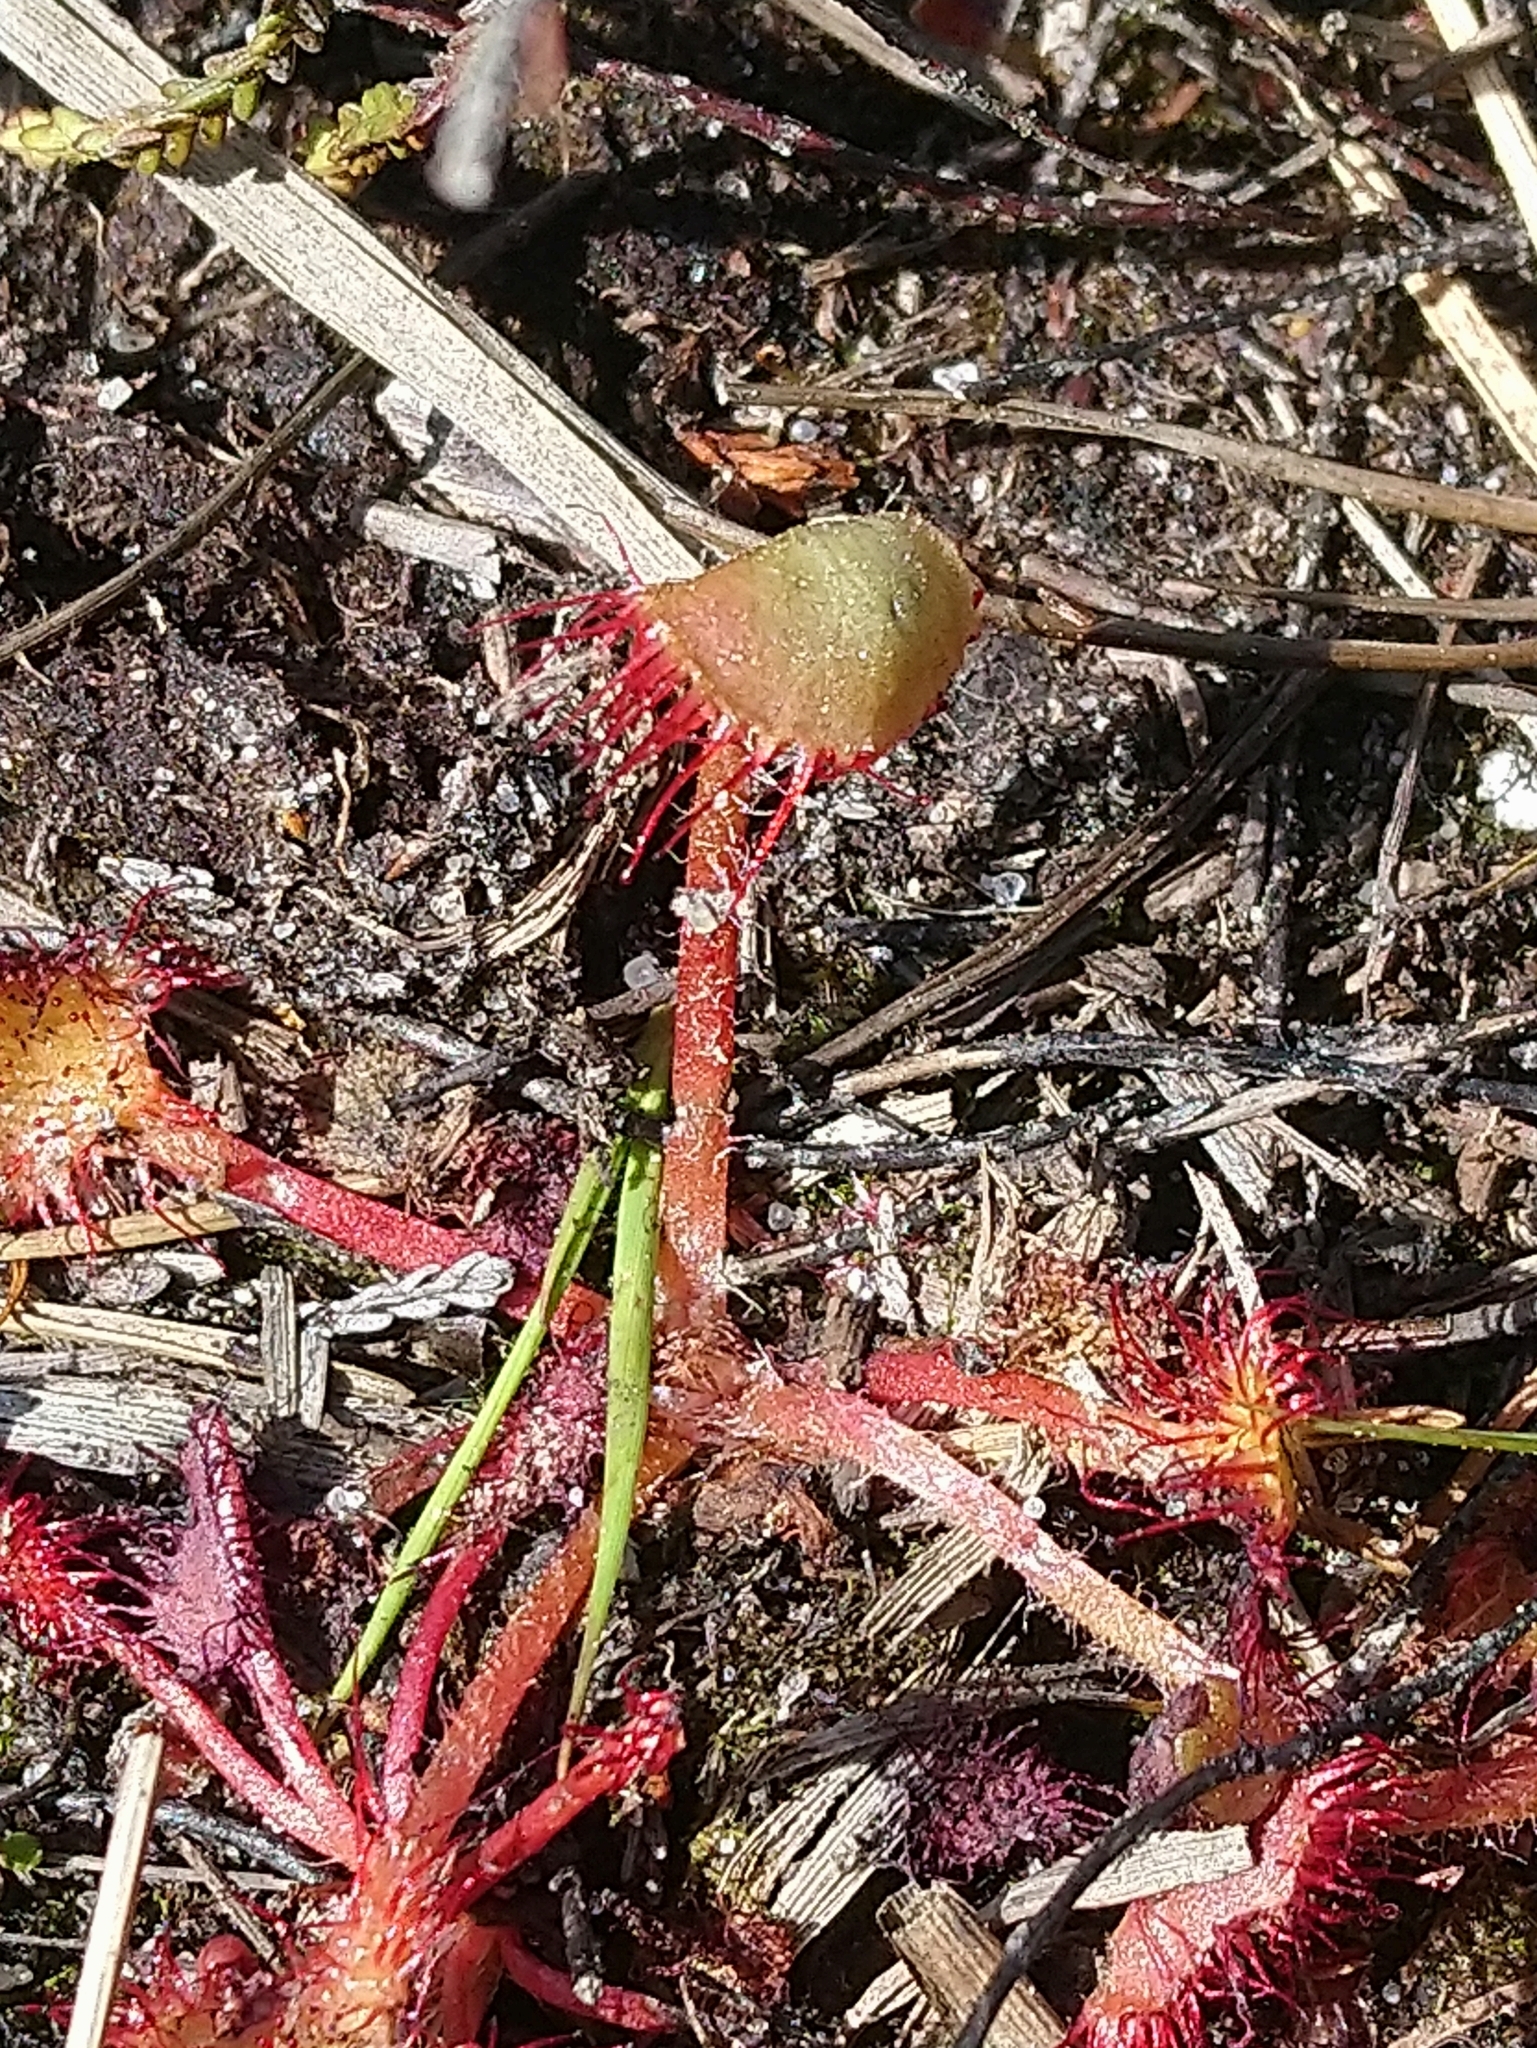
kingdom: Plantae
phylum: Tracheophyta
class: Magnoliopsida
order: Caryophyllales
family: Droseraceae
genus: Drosera
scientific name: Drosera intermedia
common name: Oblong-leaved sundew
